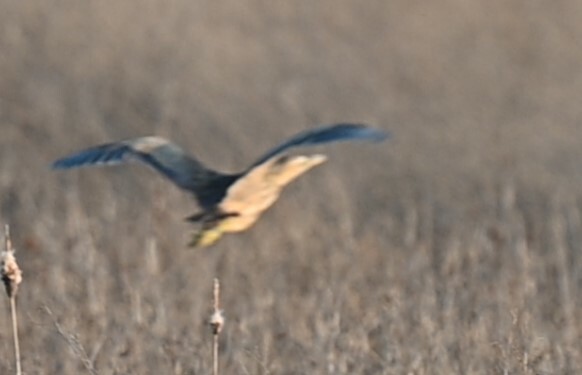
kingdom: Animalia
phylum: Chordata
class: Aves
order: Pelecaniformes
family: Ardeidae
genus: Botaurus
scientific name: Botaurus lentiginosus
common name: American bittern
